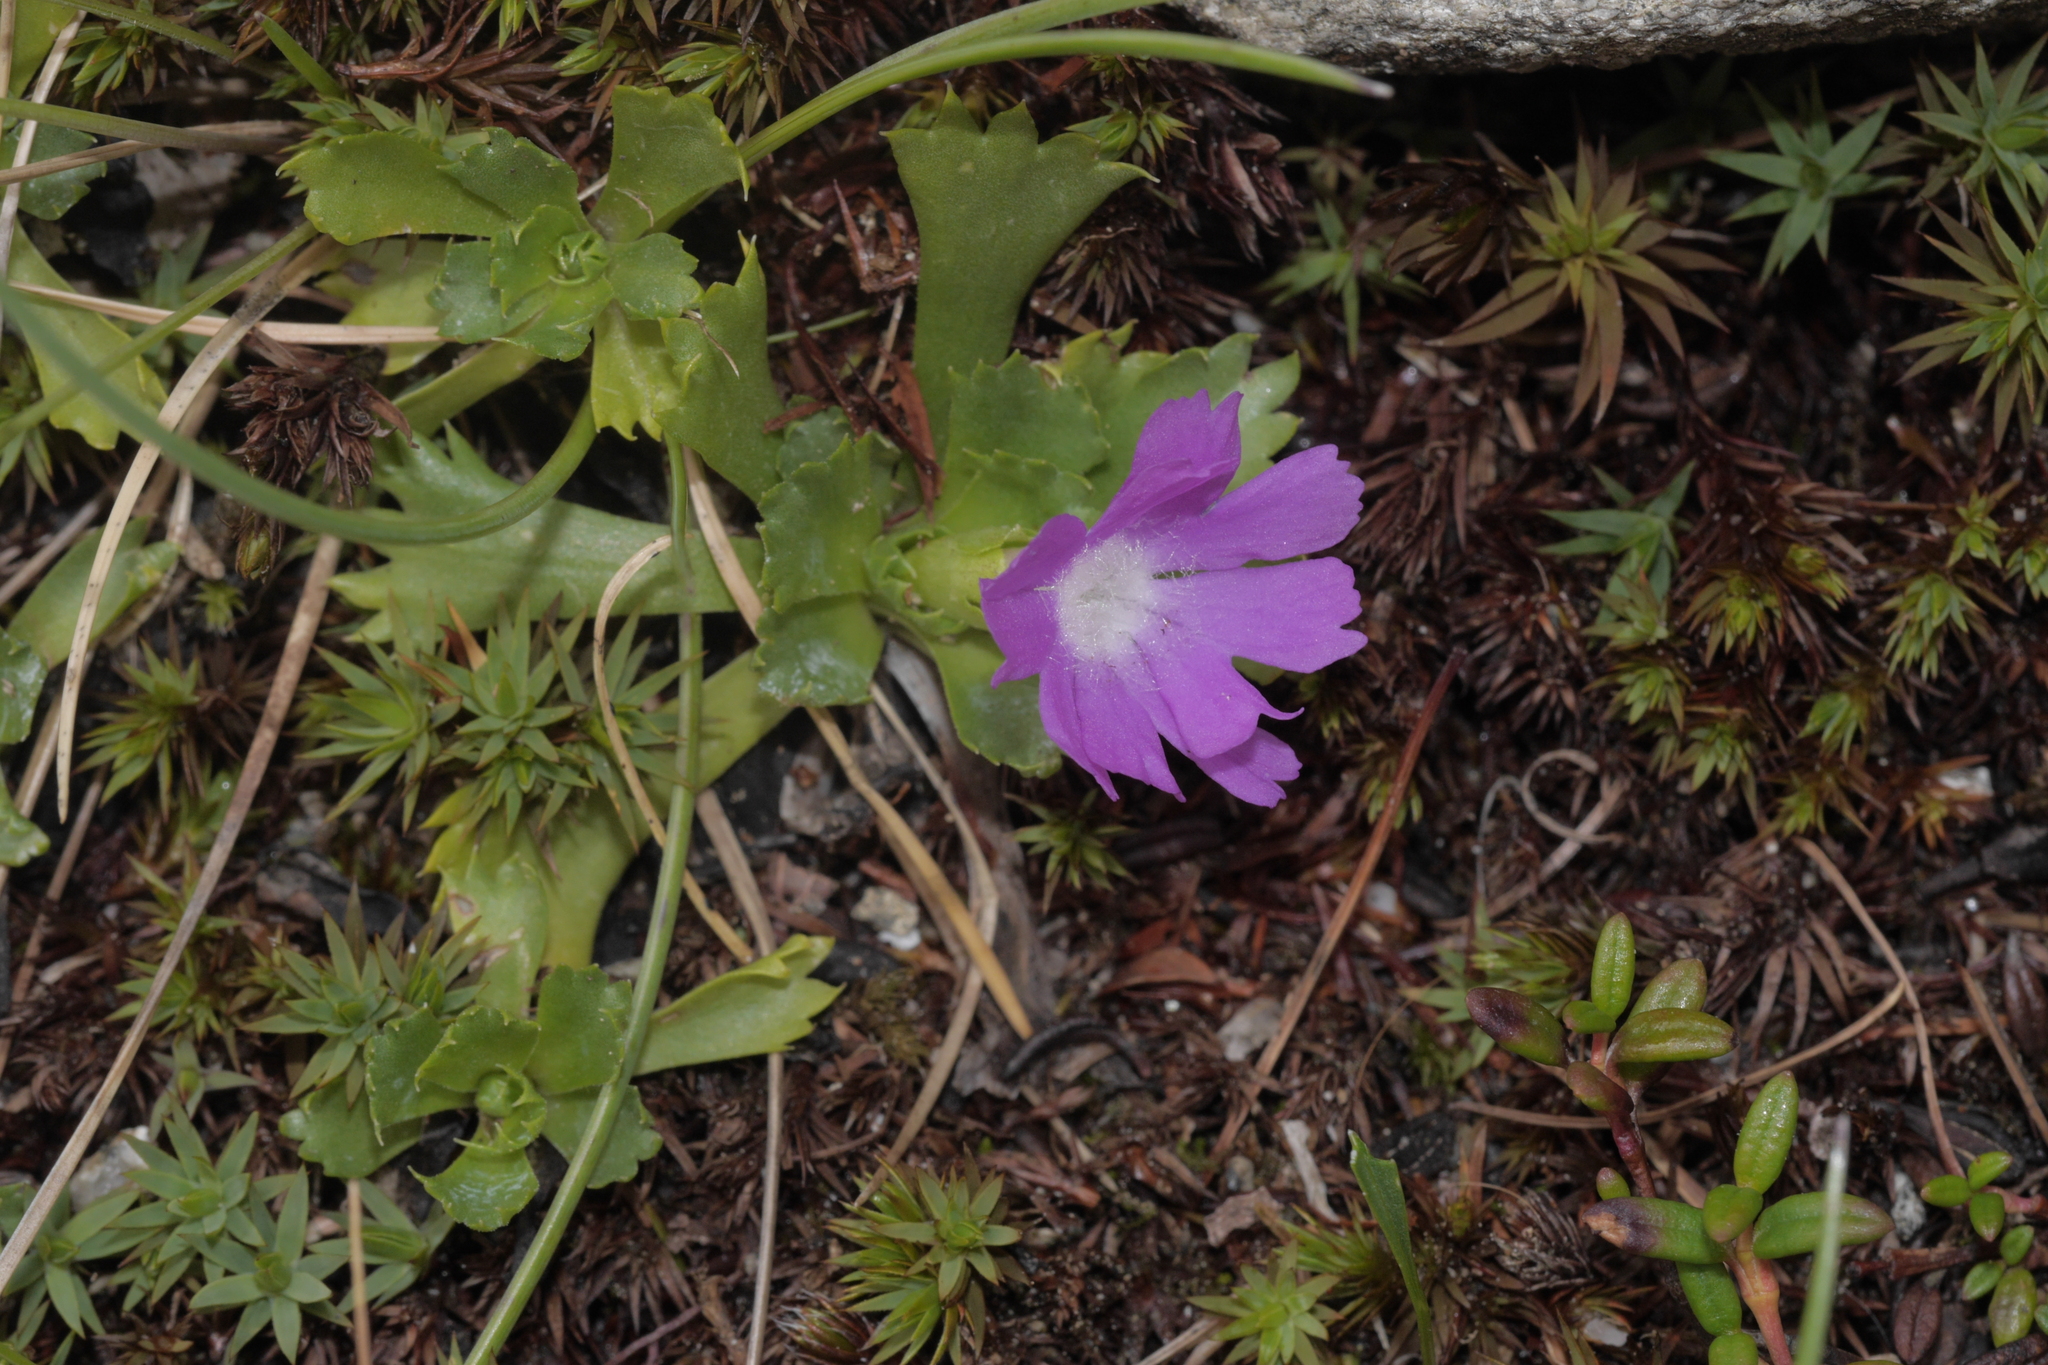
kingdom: Plantae
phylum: Tracheophyta
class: Magnoliopsida
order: Ericales
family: Primulaceae
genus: Primula
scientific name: Primula minima
